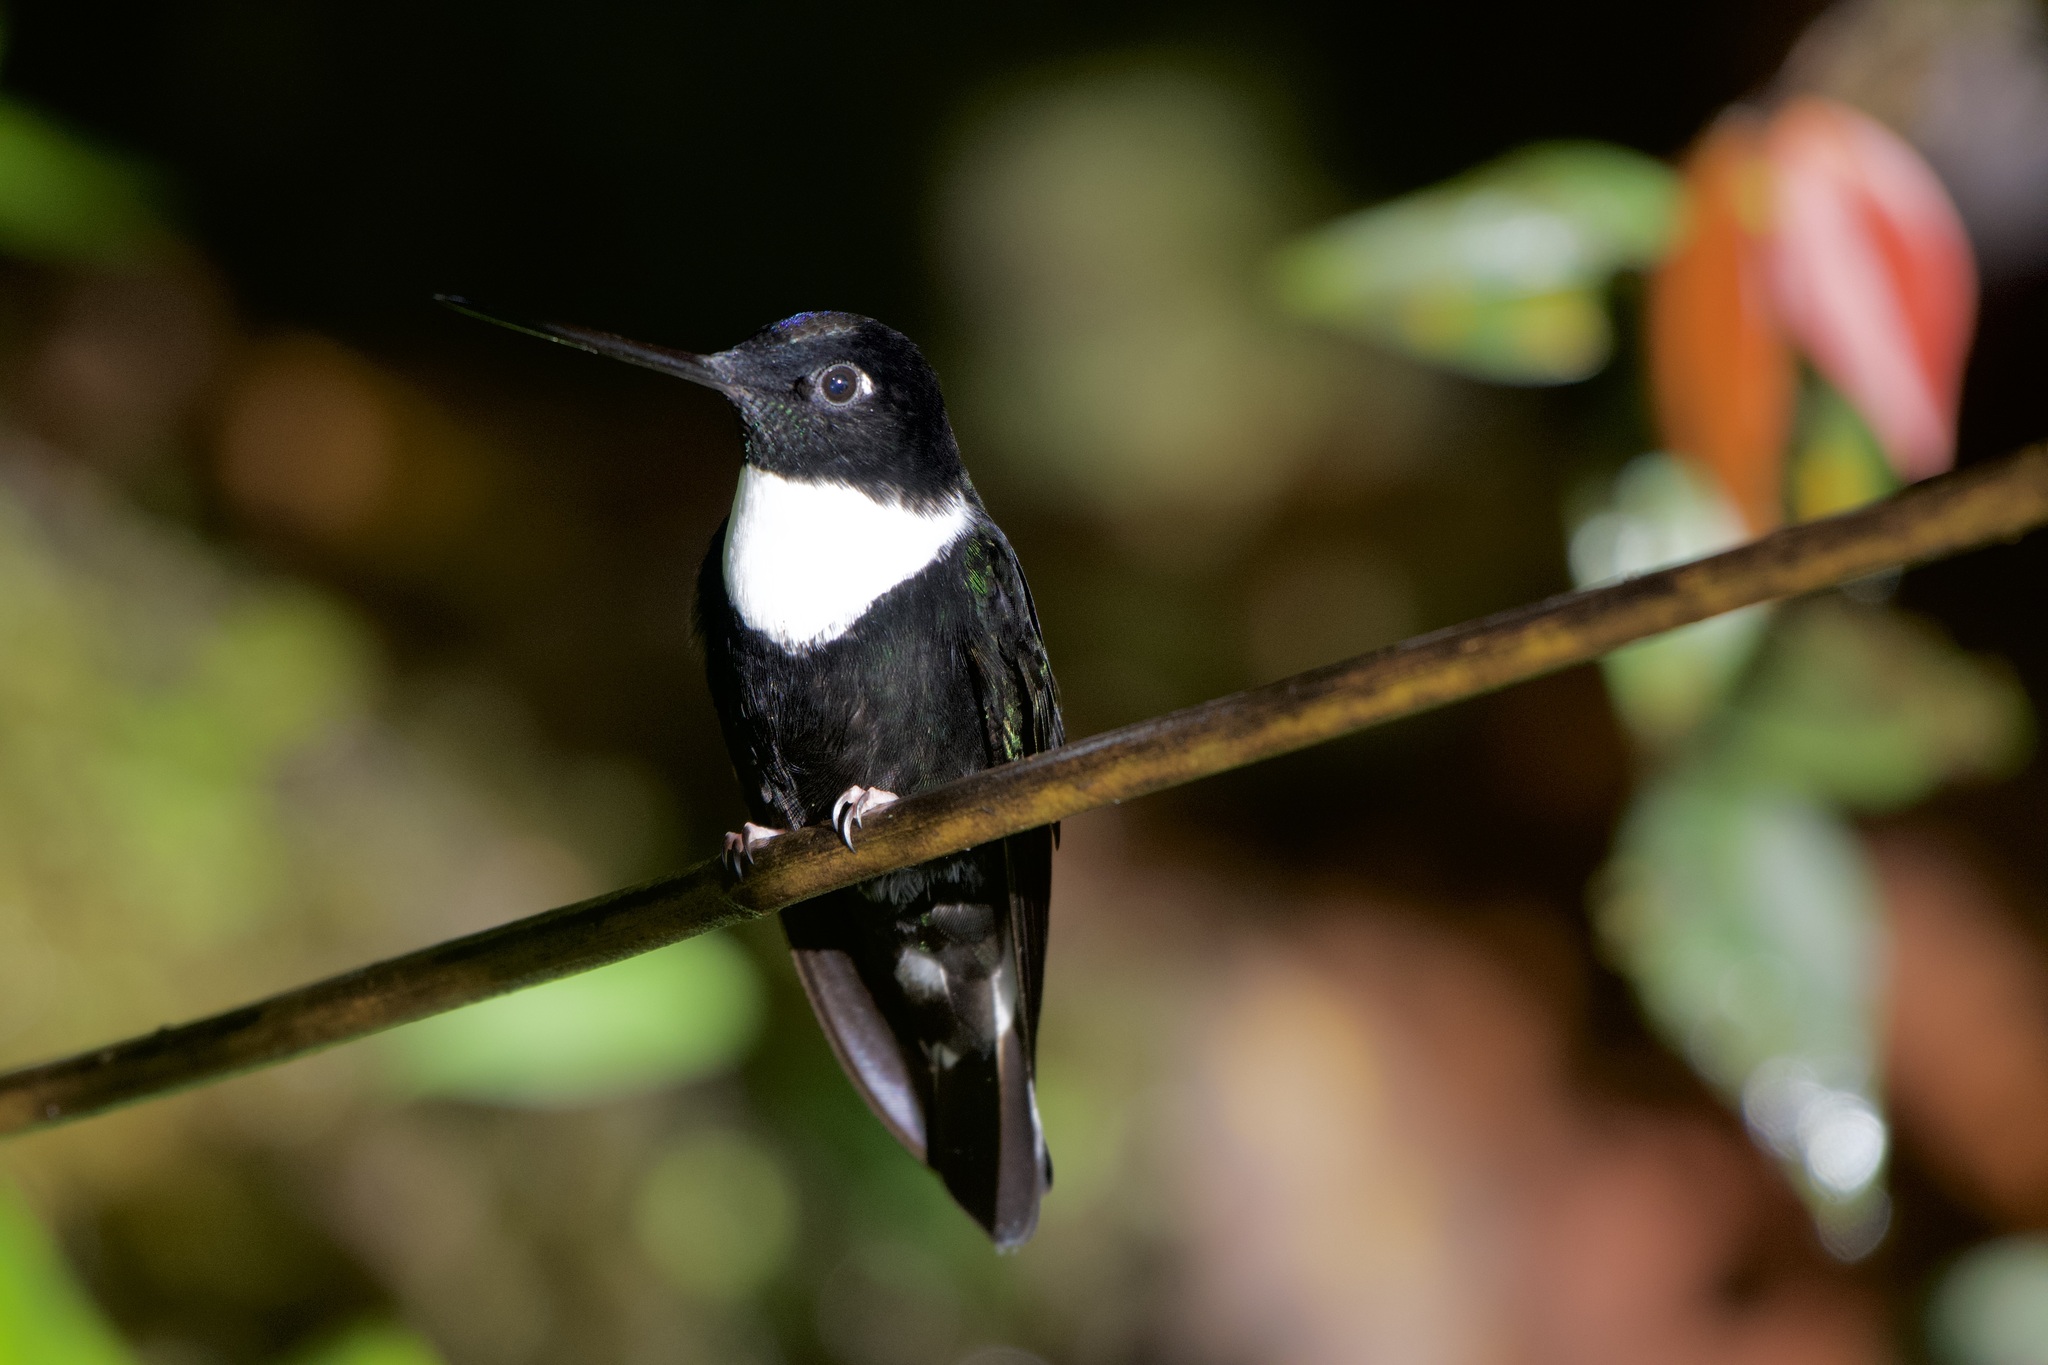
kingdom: Animalia
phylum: Chordata
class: Aves
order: Apodiformes
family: Trochilidae
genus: Coeligena
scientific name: Coeligena torquata
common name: Collared inca
